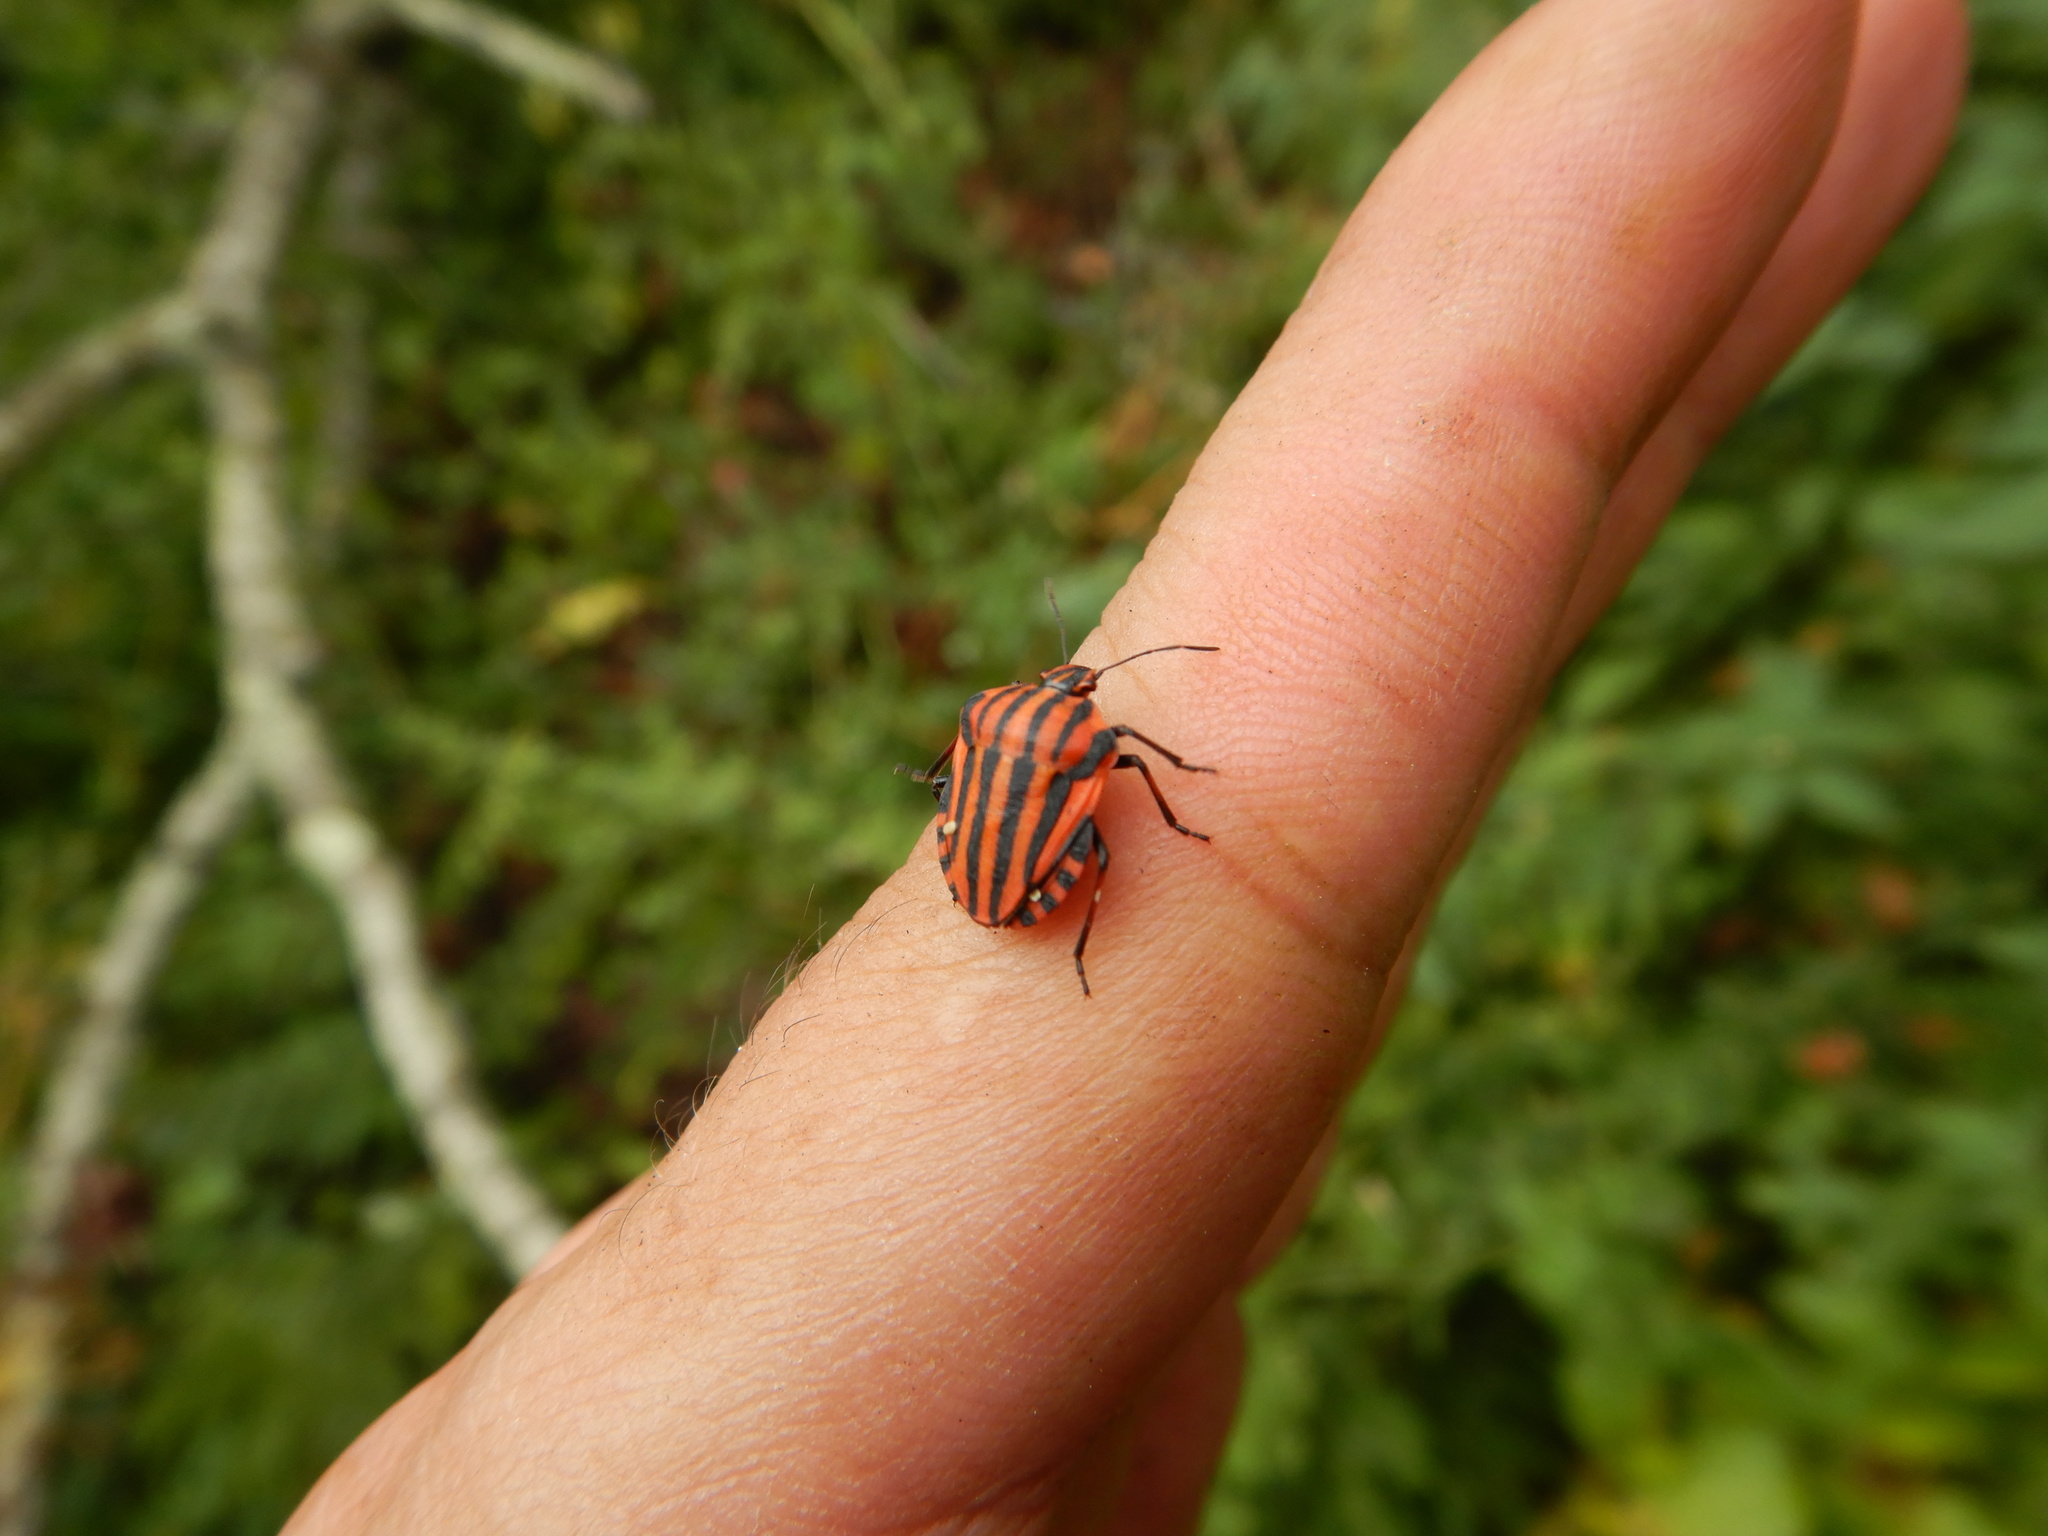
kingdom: Animalia
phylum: Arthropoda
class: Insecta
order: Hemiptera
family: Pentatomidae
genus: Graphosoma
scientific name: Graphosoma italicum
